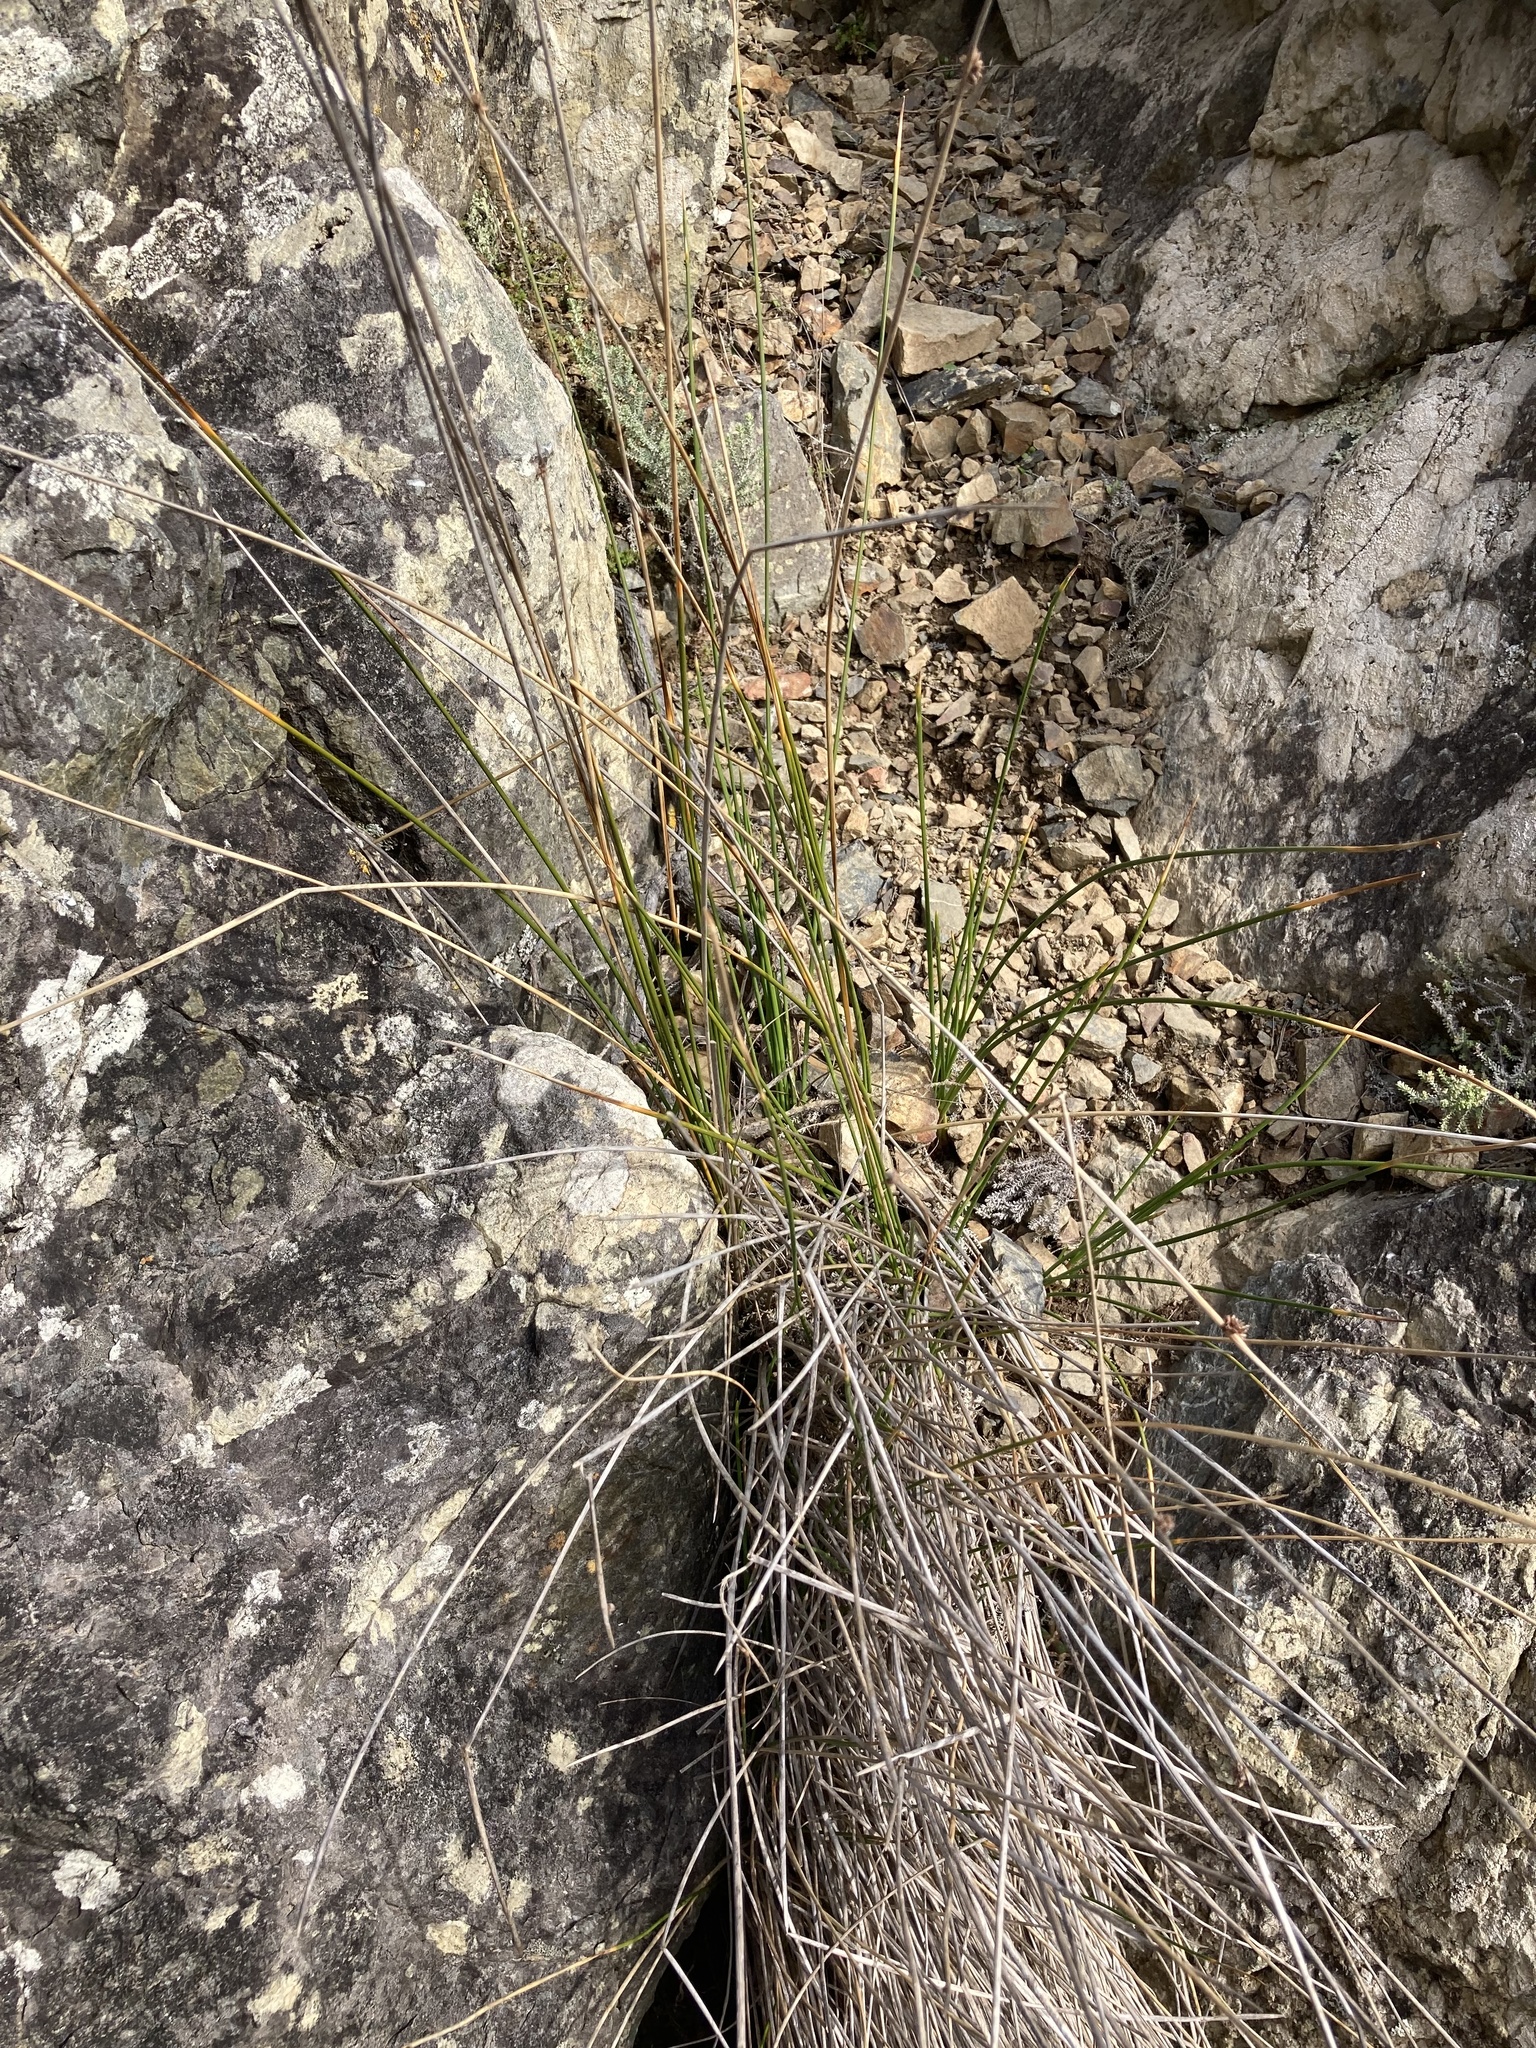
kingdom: Plantae
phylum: Tracheophyta
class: Liliopsida
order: Poales
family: Cyperaceae
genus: Ficinia
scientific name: Ficinia nodosa
